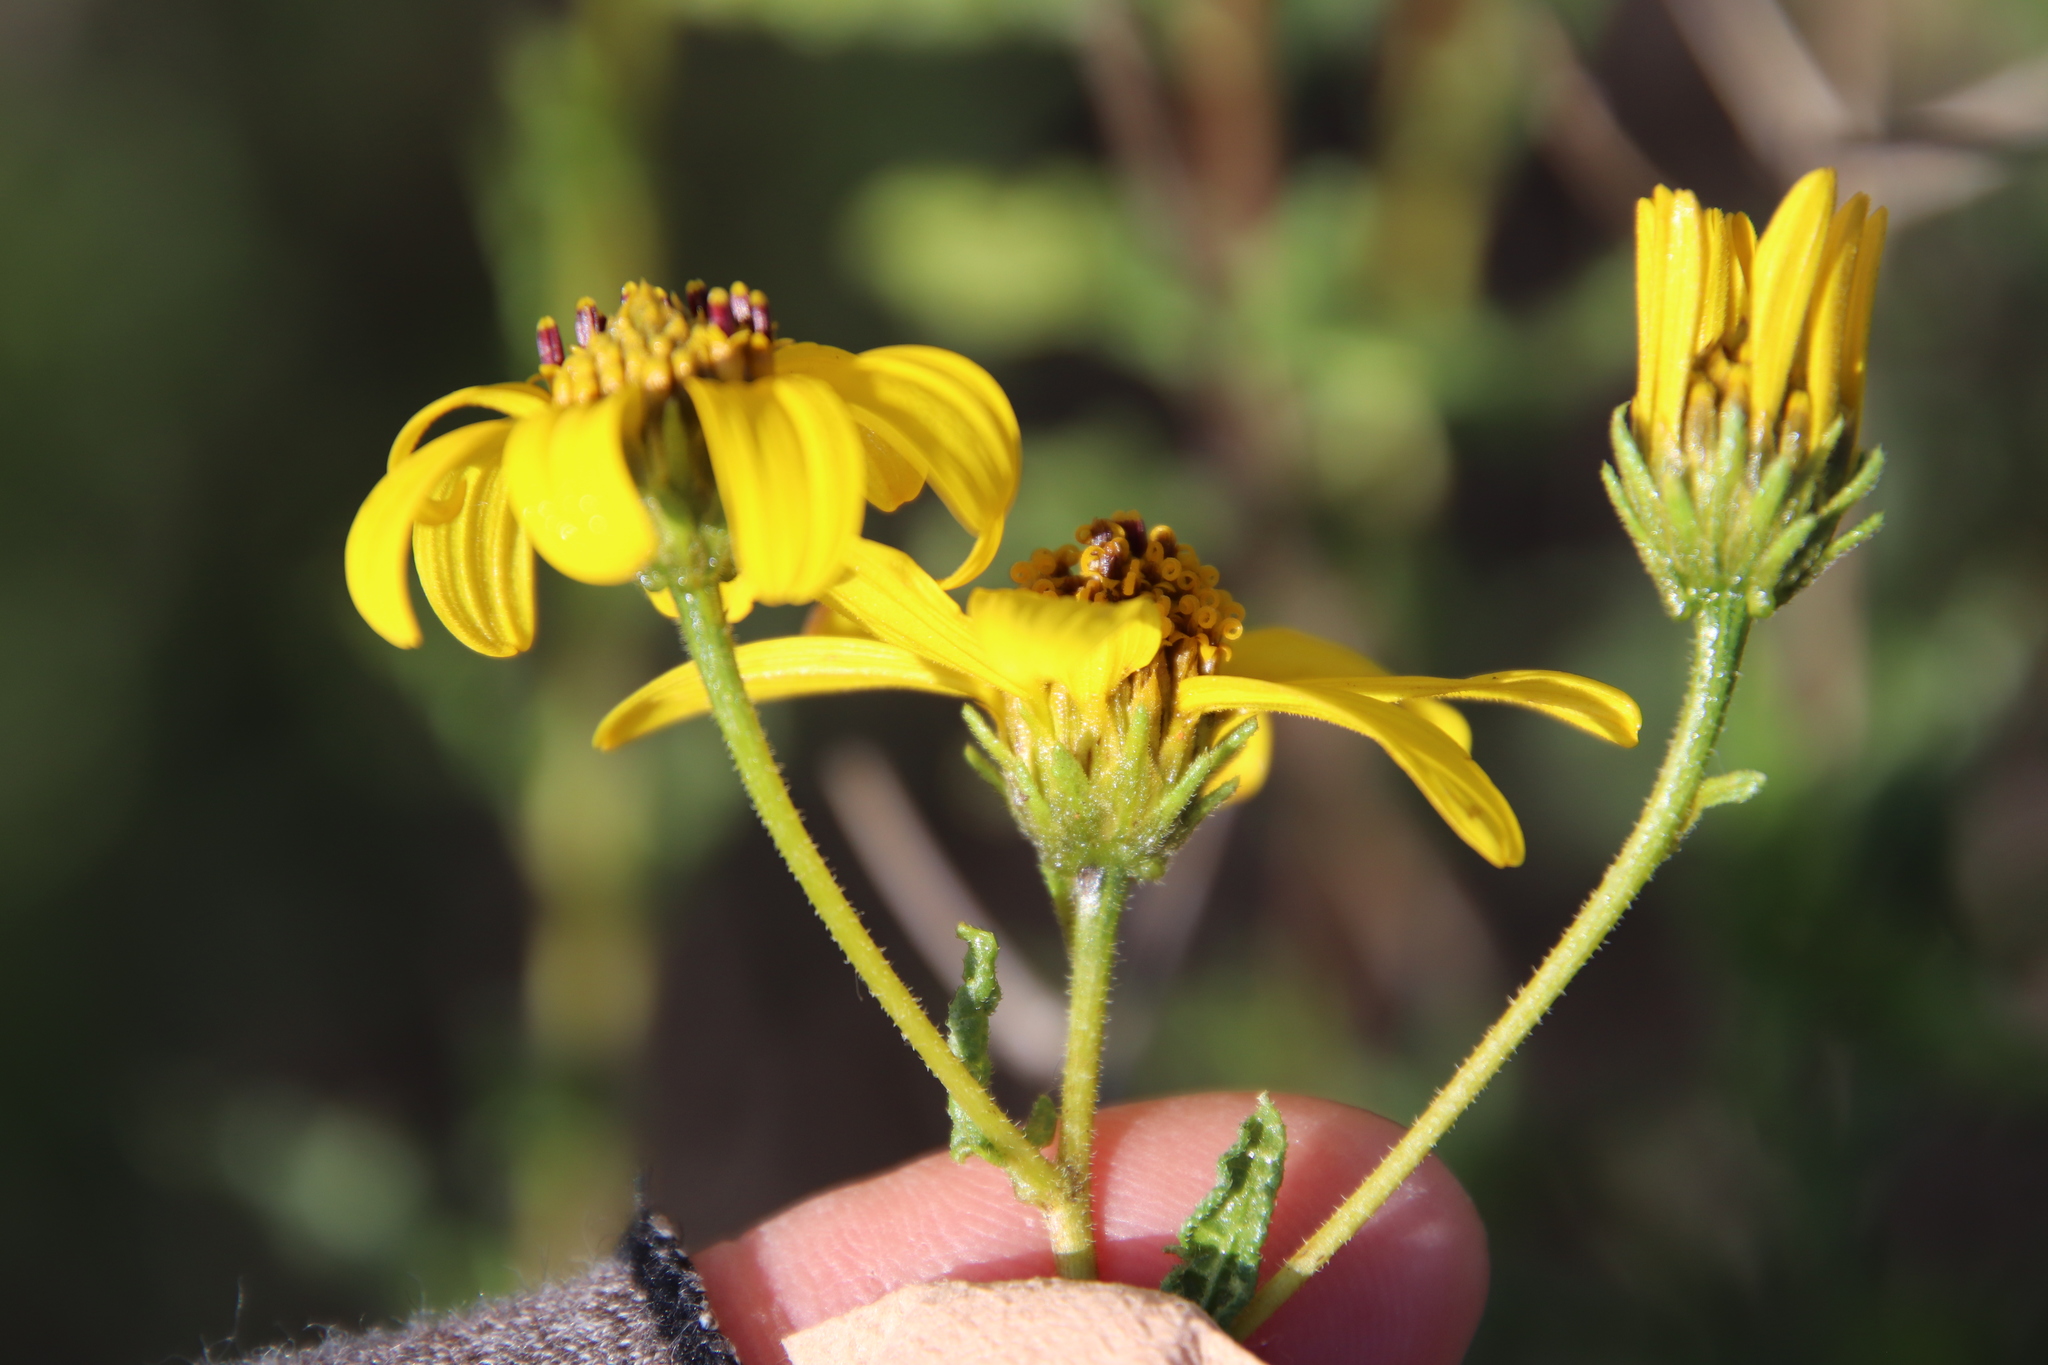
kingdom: Plantae
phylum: Tracheophyta
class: Magnoliopsida
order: Asterales
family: Asteraceae
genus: Bahiopsis
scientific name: Bahiopsis laciniata
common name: San diego county viguiera
